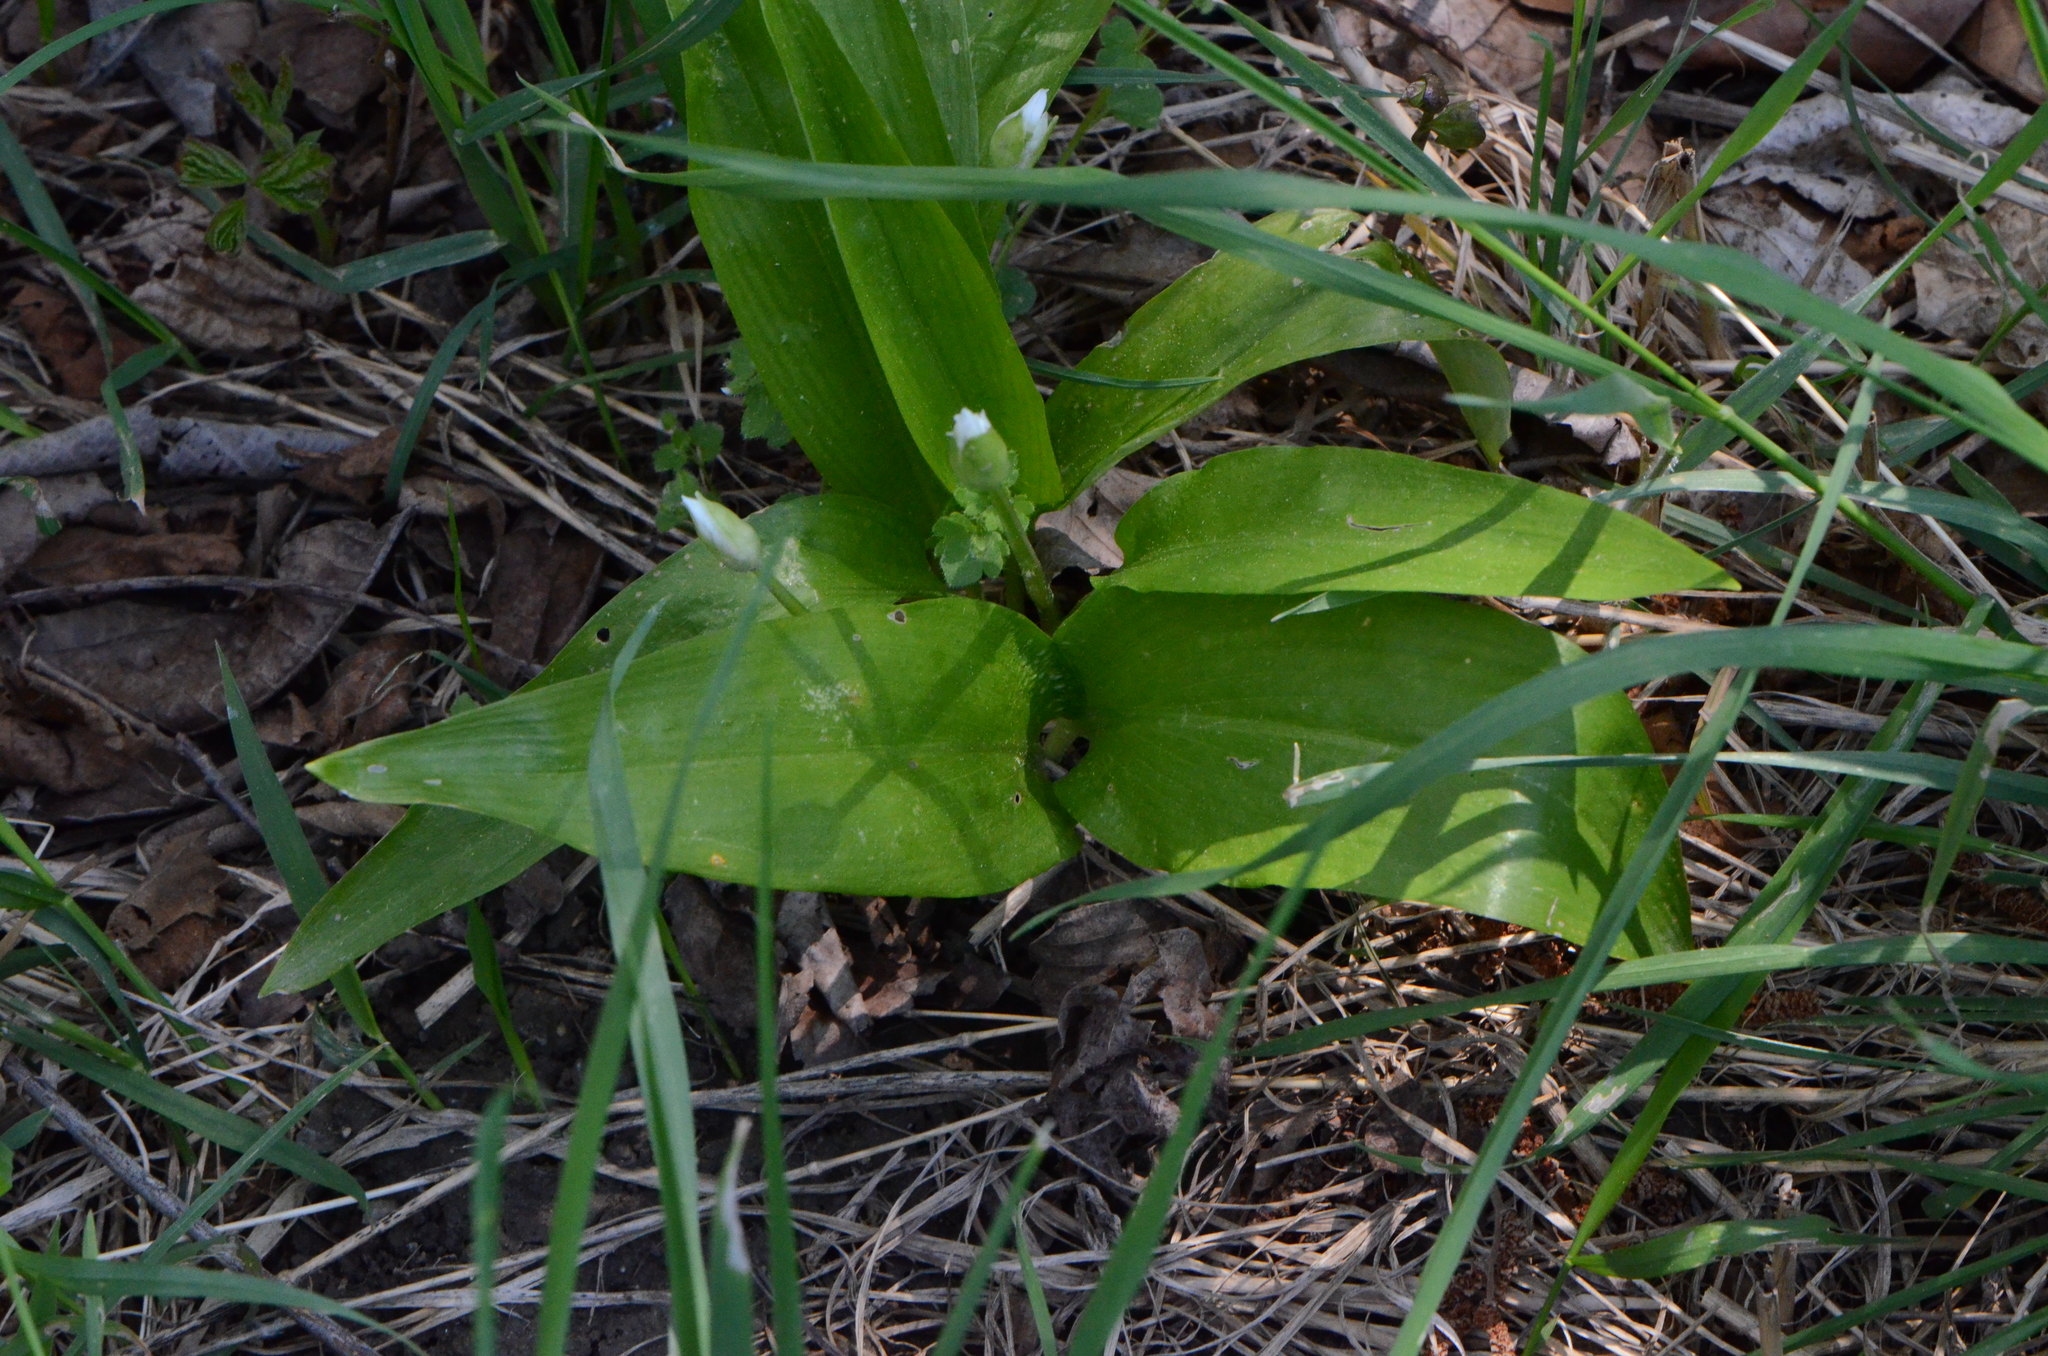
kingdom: Plantae
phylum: Tracheophyta
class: Liliopsida
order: Asparagales
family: Amaryllidaceae
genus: Allium
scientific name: Allium ursinum
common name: Ramsons
